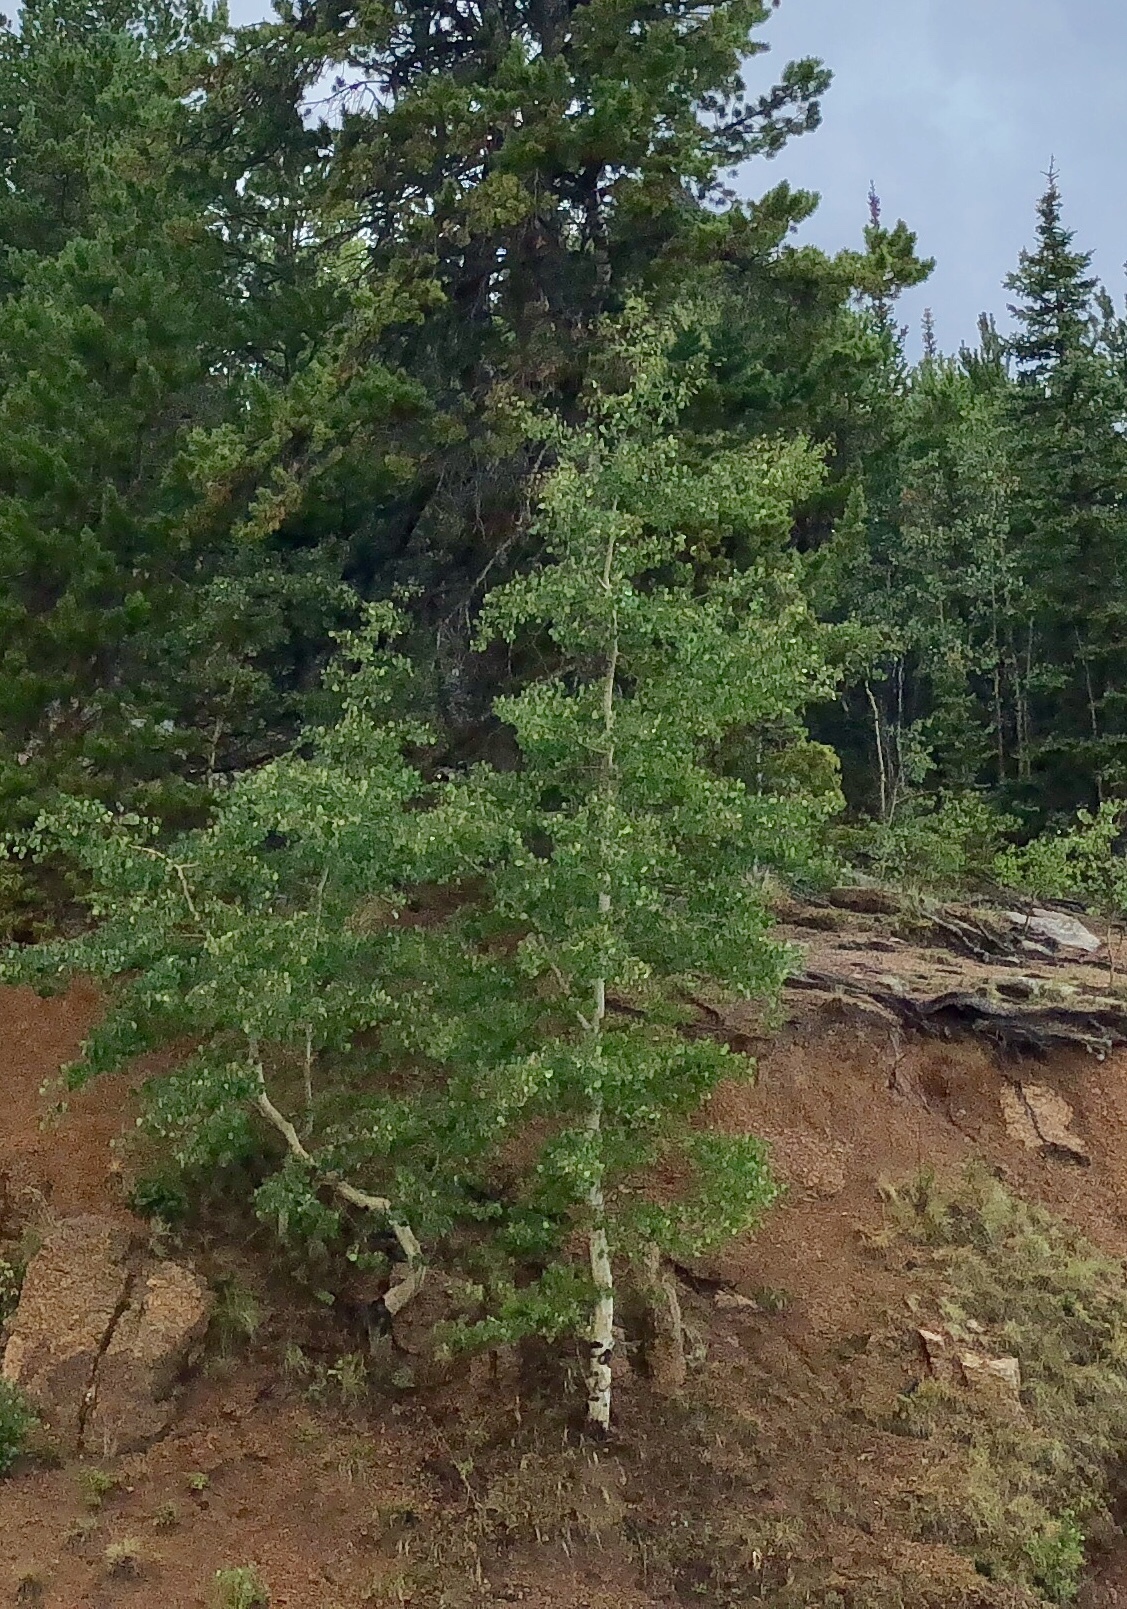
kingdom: Plantae
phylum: Tracheophyta
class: Magnoliopsida
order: Malpighiales
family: Salicaceae
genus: Populus
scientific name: Populus tremuloides
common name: Quaking aspen
